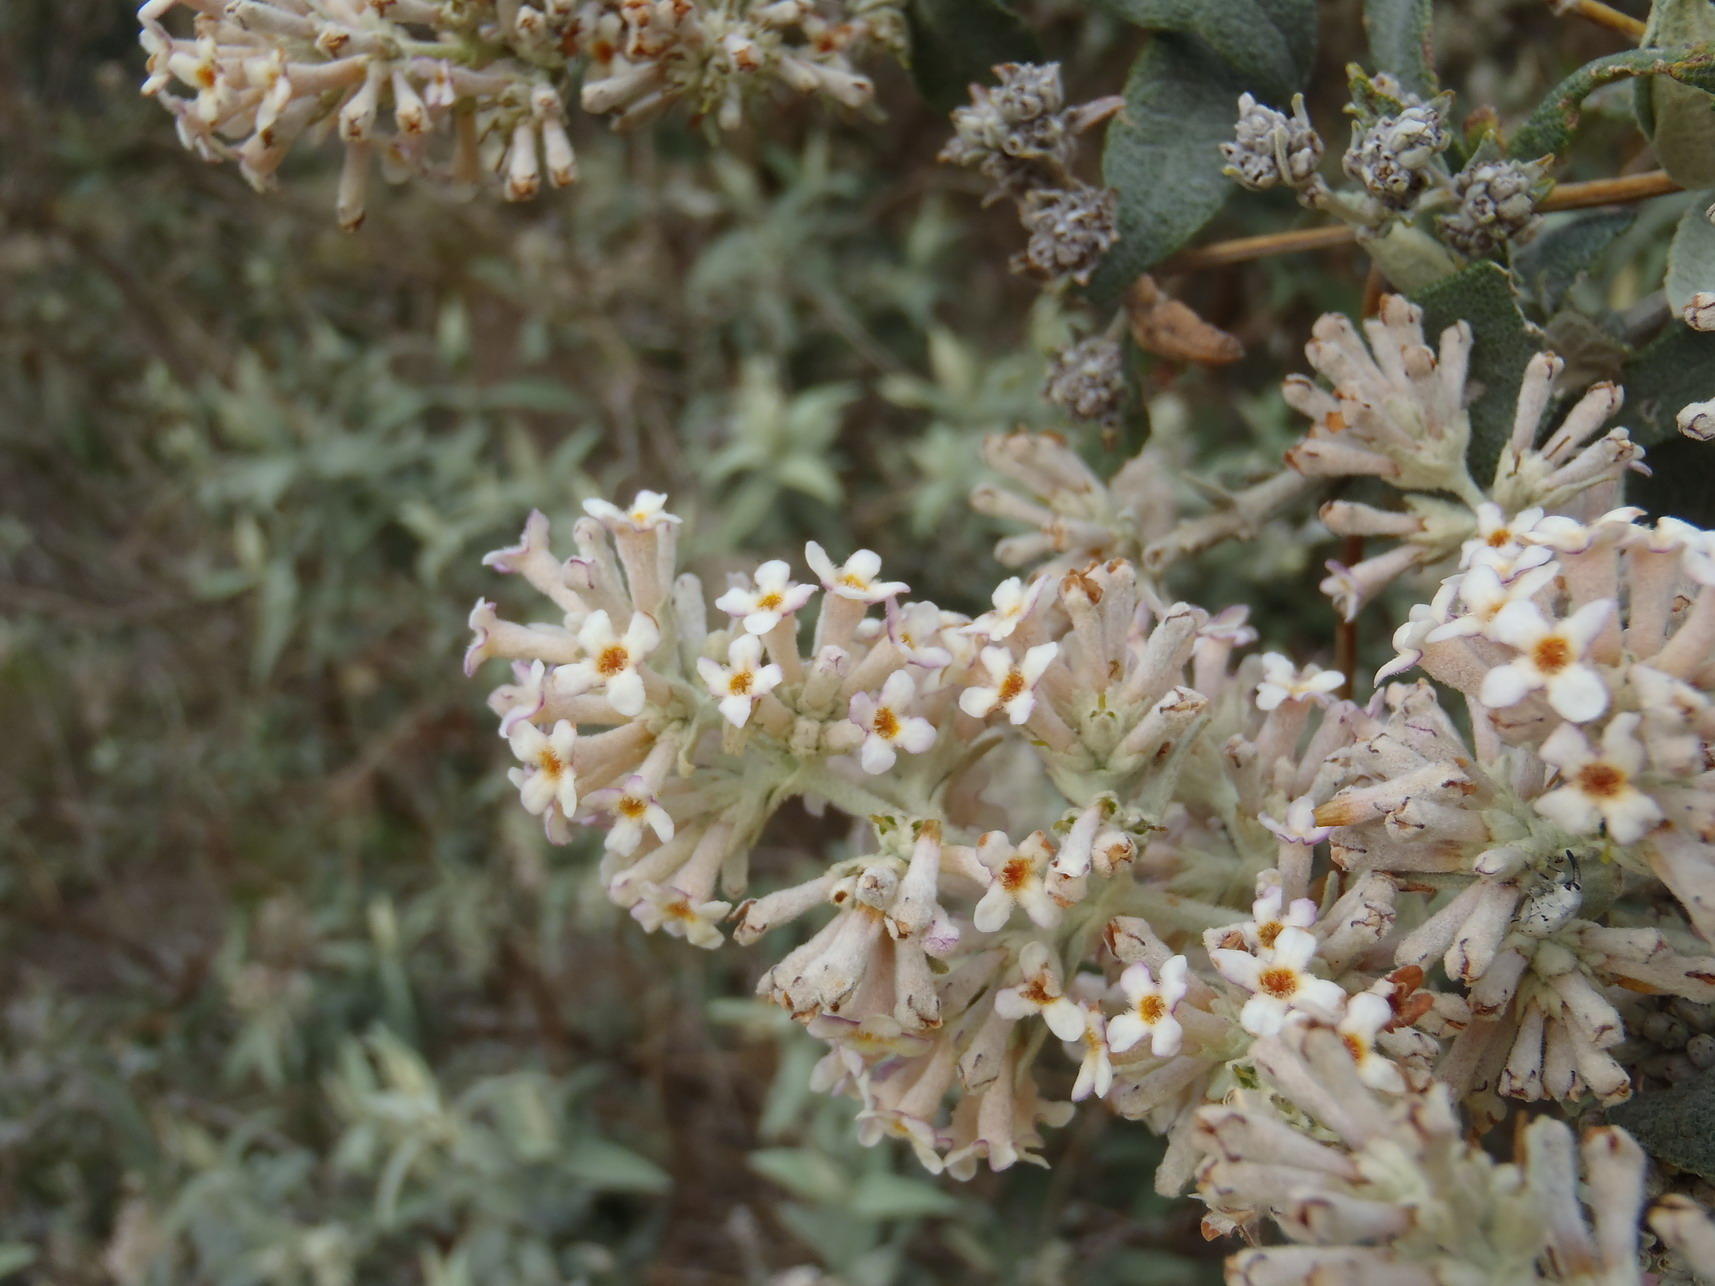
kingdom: Plantae
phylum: Tracheophyta
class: Magnoliopsida
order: Lamiales
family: Scrophulariaceae
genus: Buddleja
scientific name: Buddleja salviifolia
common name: Sagewood
